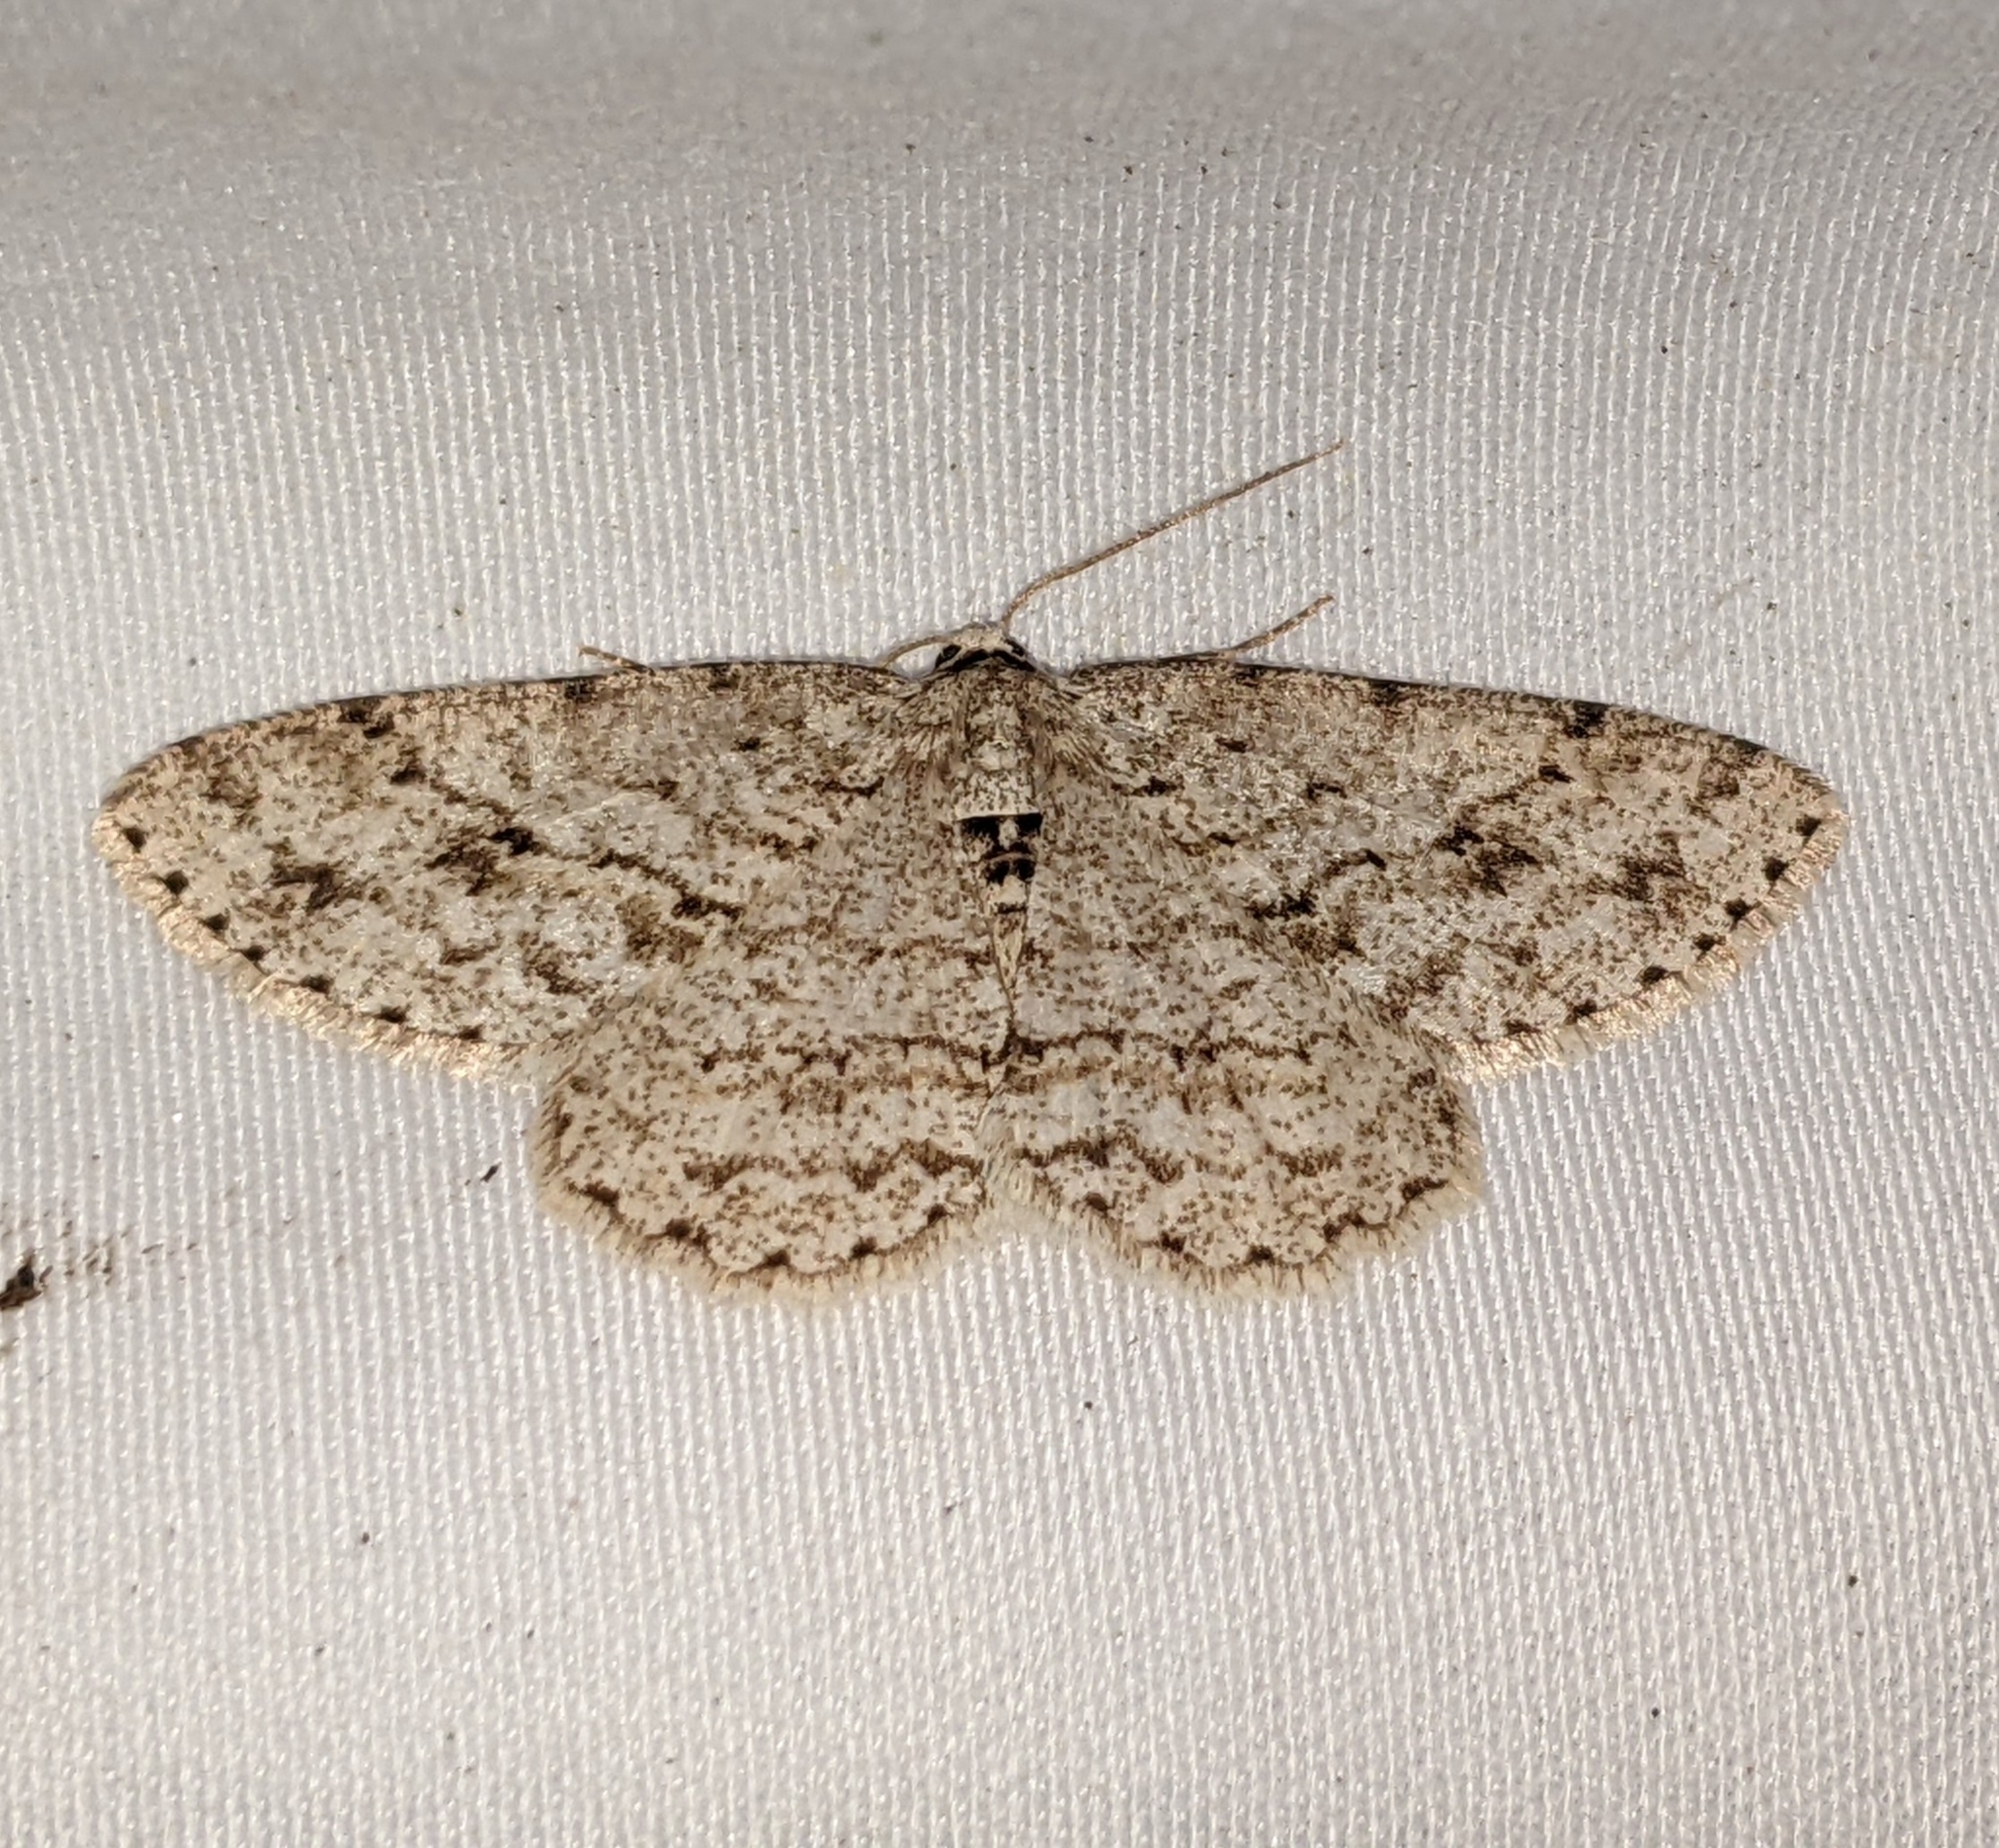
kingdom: Animalia
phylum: Arthropoda
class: Insecta
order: Lepidoptera
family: Geometridae
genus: Ectropis
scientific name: Ectropis crepuscularia
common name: Engrailed
